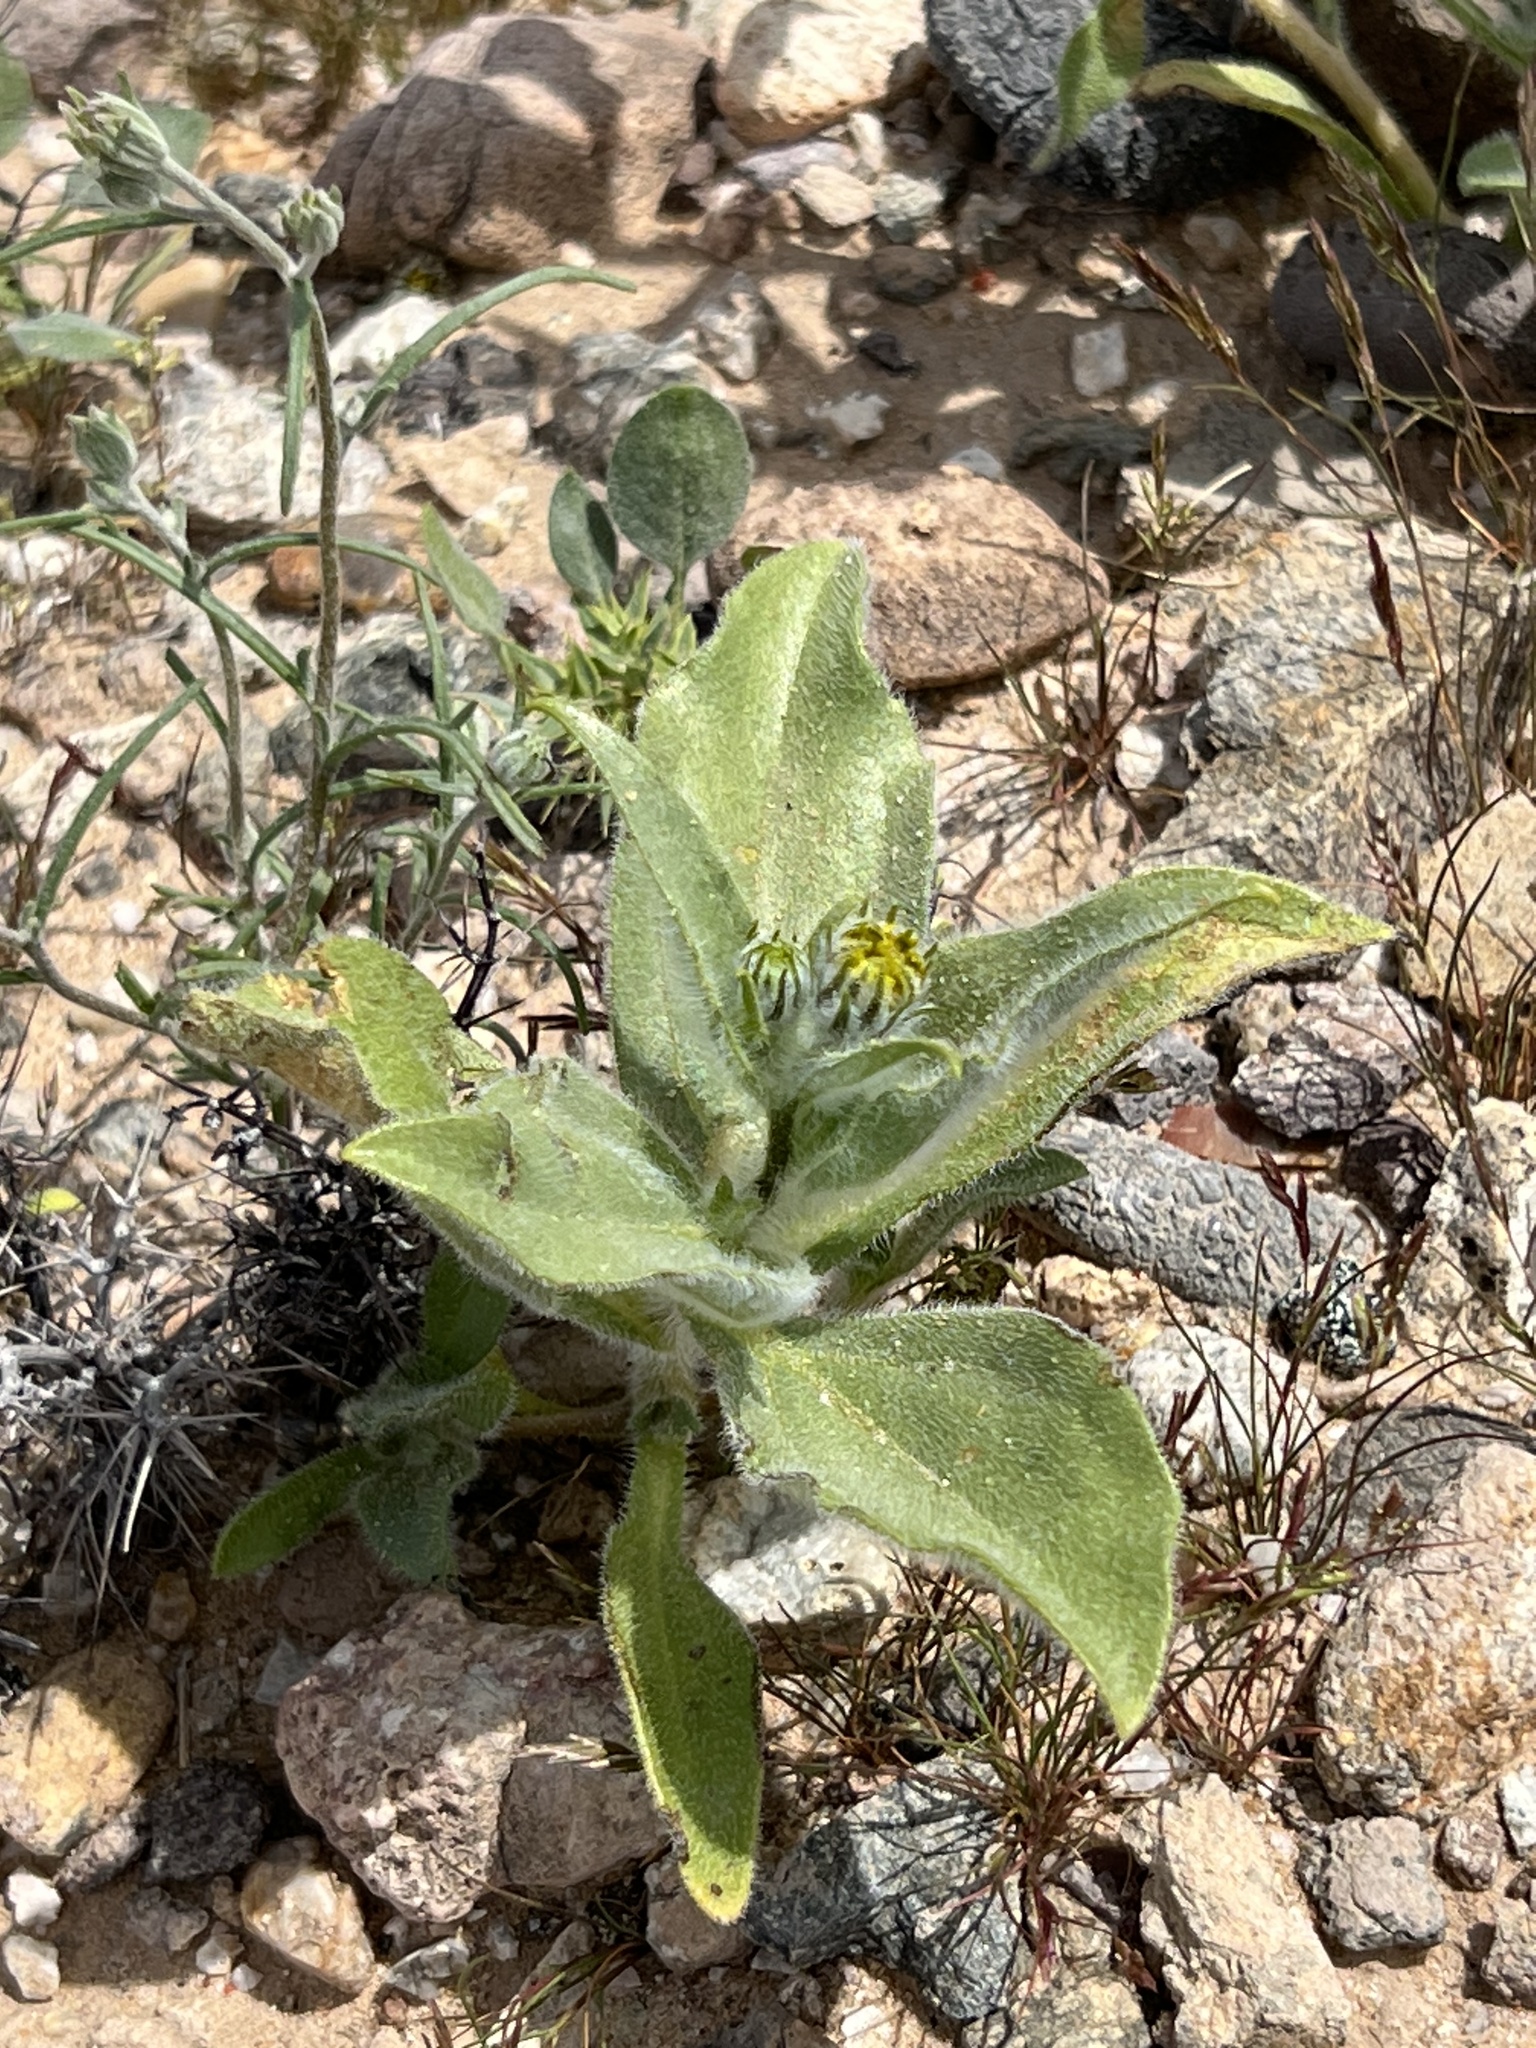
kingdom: Plantae
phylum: Tracheophyta
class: Magnoliopsida
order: Asterales
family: Asteraceae
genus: Geraea
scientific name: Geraea canescens
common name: Desert-gold
